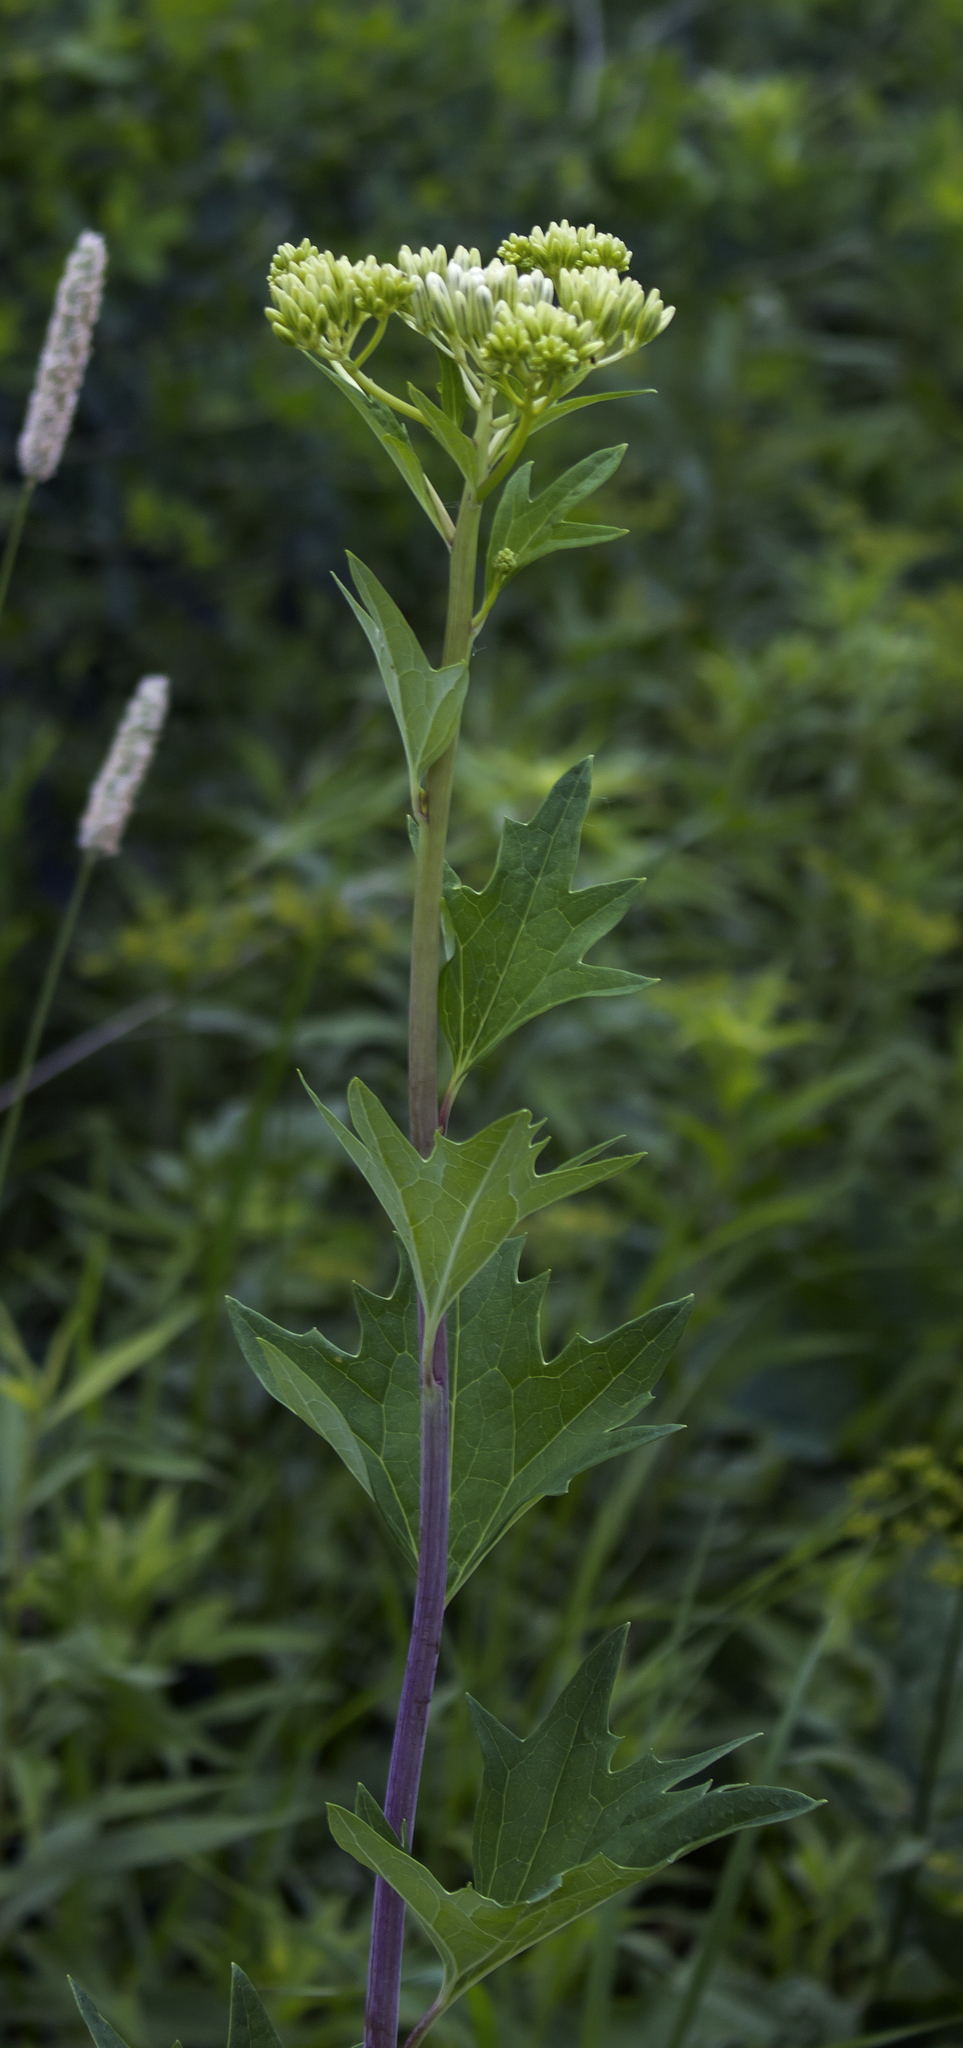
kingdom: Plantae
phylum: Tracheophyta
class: Magnoliopsida
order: Asterales
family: Asteraceae
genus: Arnoglossum
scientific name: Arnoglossum atriplicifolium
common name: Pale indian-plantain
